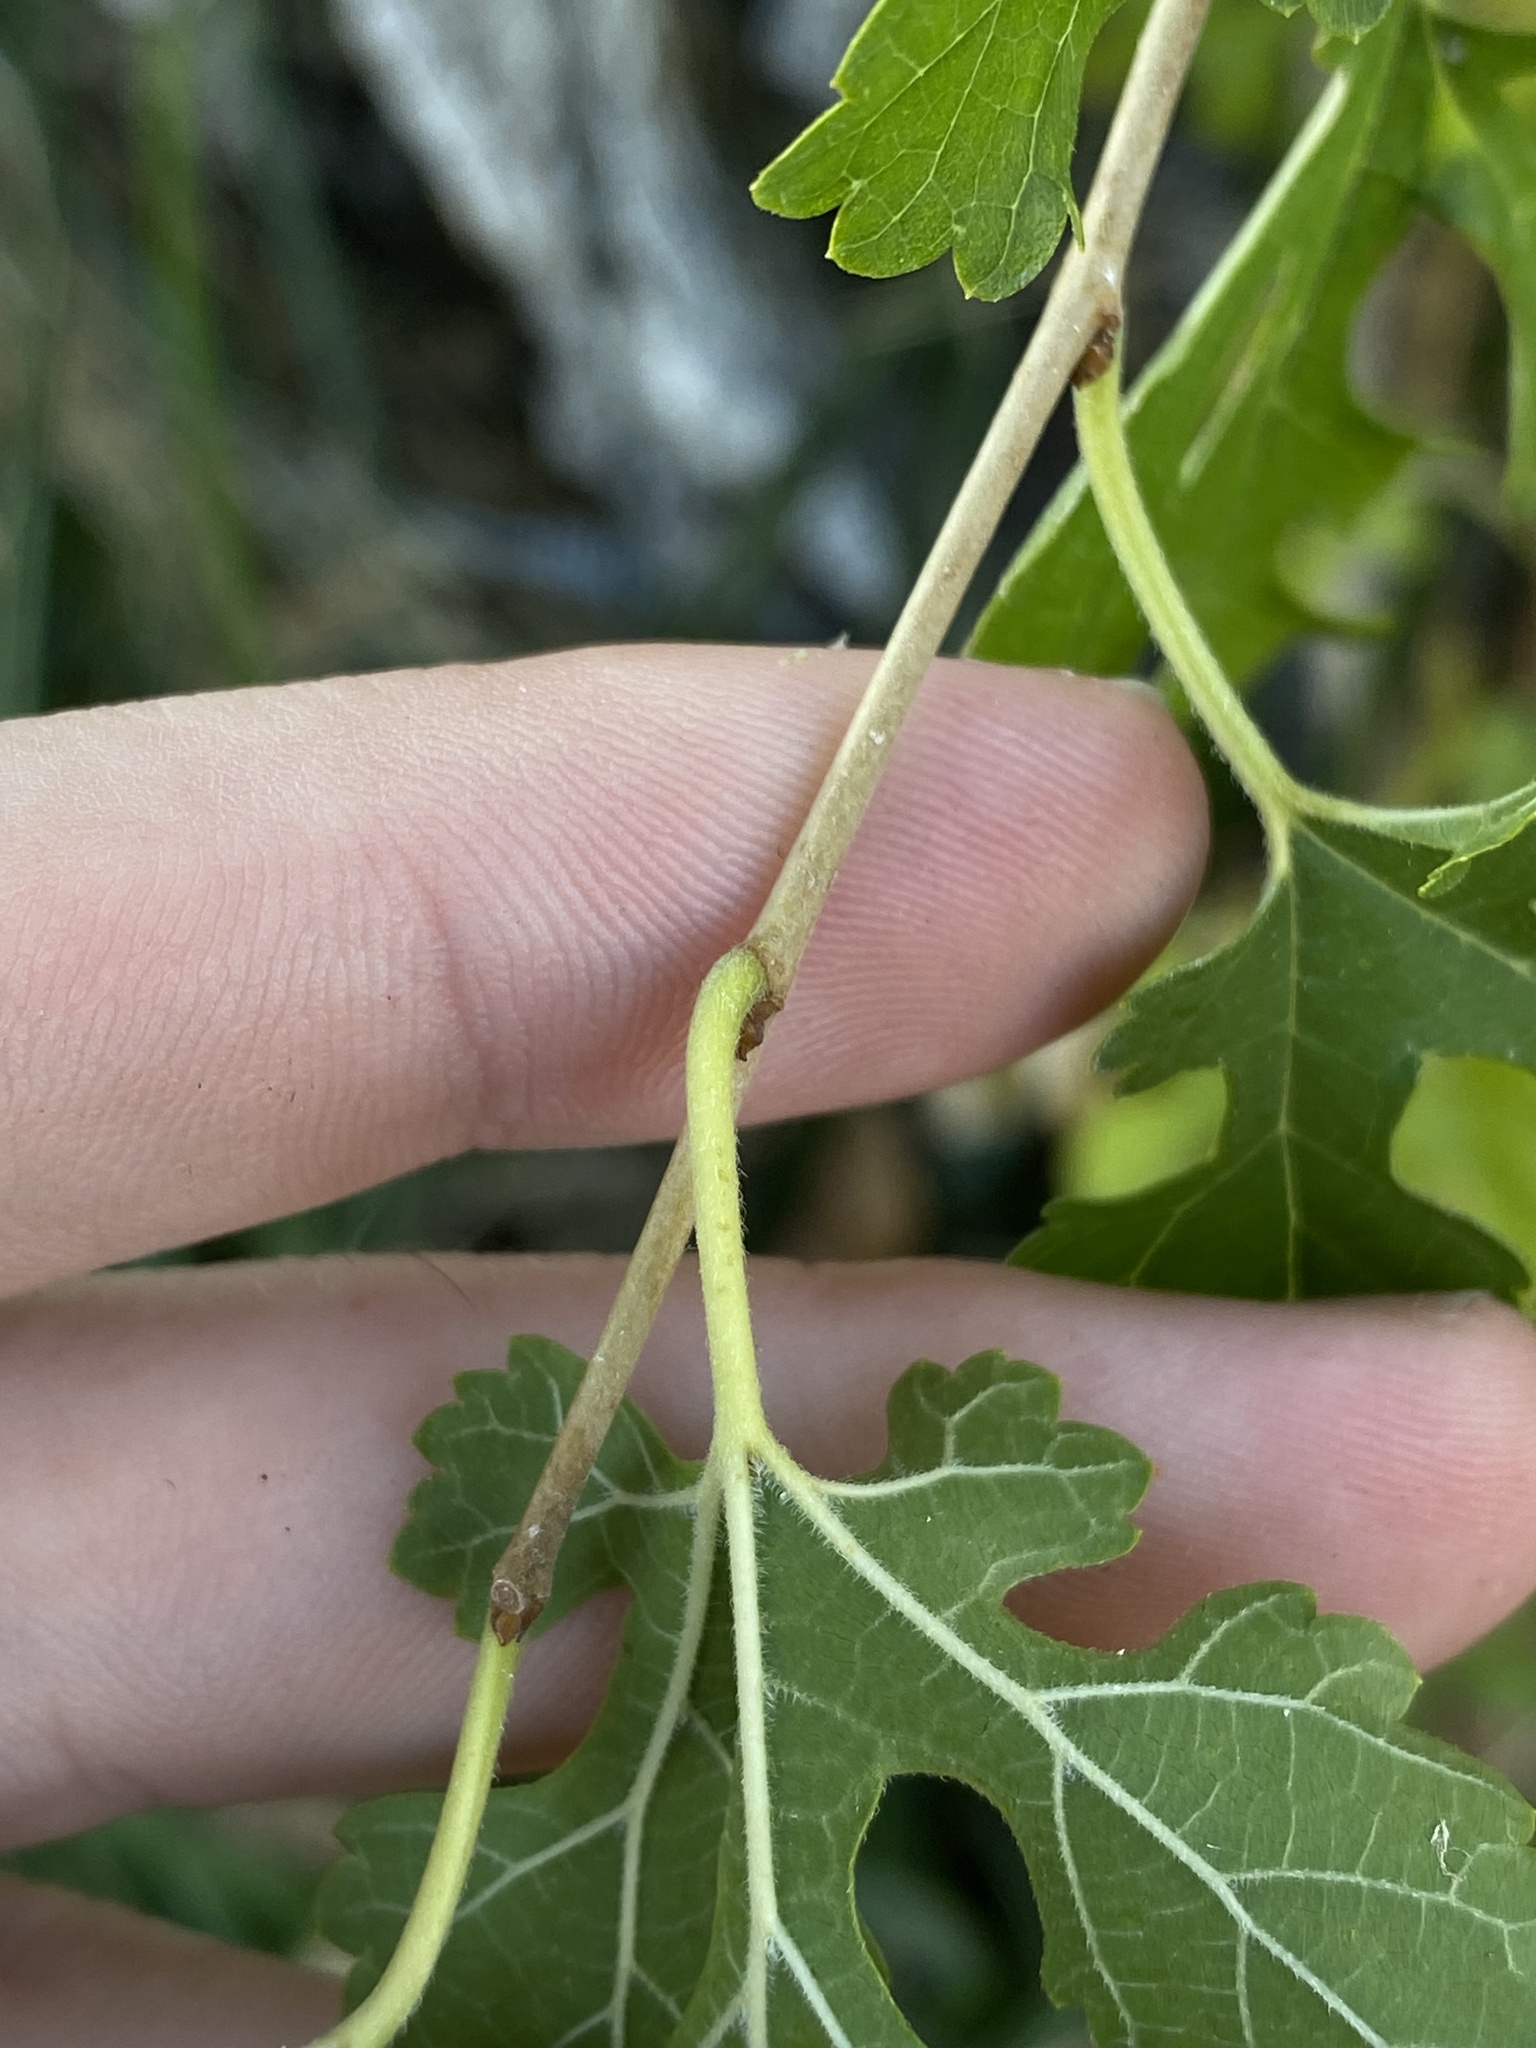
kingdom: Plantae
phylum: Tracheophyta
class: Magnoliopsida
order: Rosales
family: Moraceae
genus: Morus
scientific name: Morus alba
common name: White mulberry
